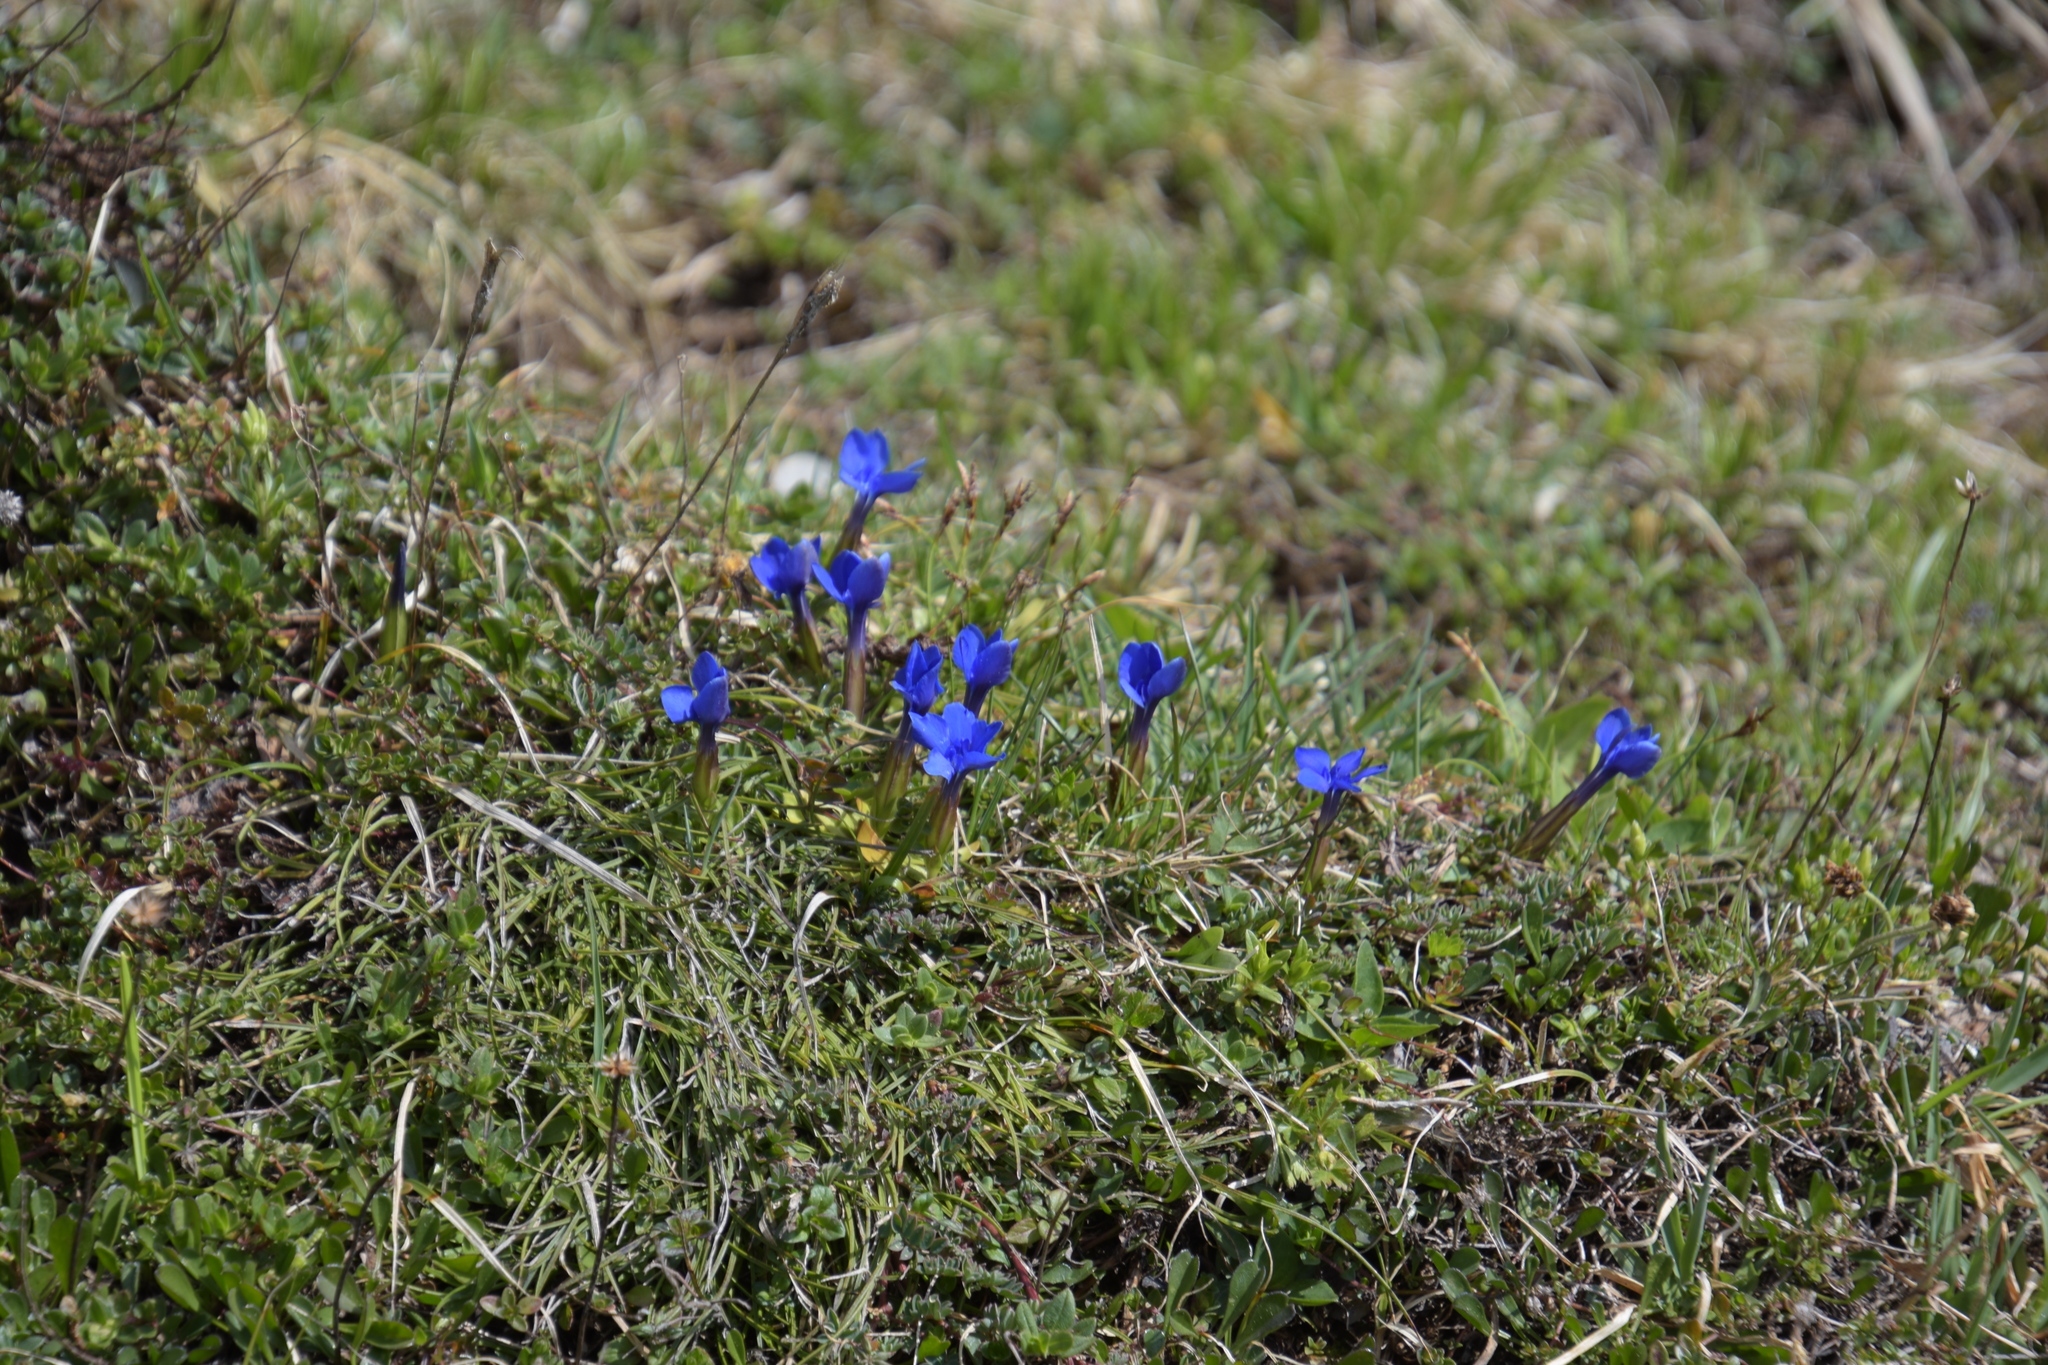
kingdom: Plantae
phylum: Tracheophyta
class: Magnoliopsida
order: Gentianales
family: Gentianaceae
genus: Gentiana
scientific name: Gentiana verna
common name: Spring gentian
